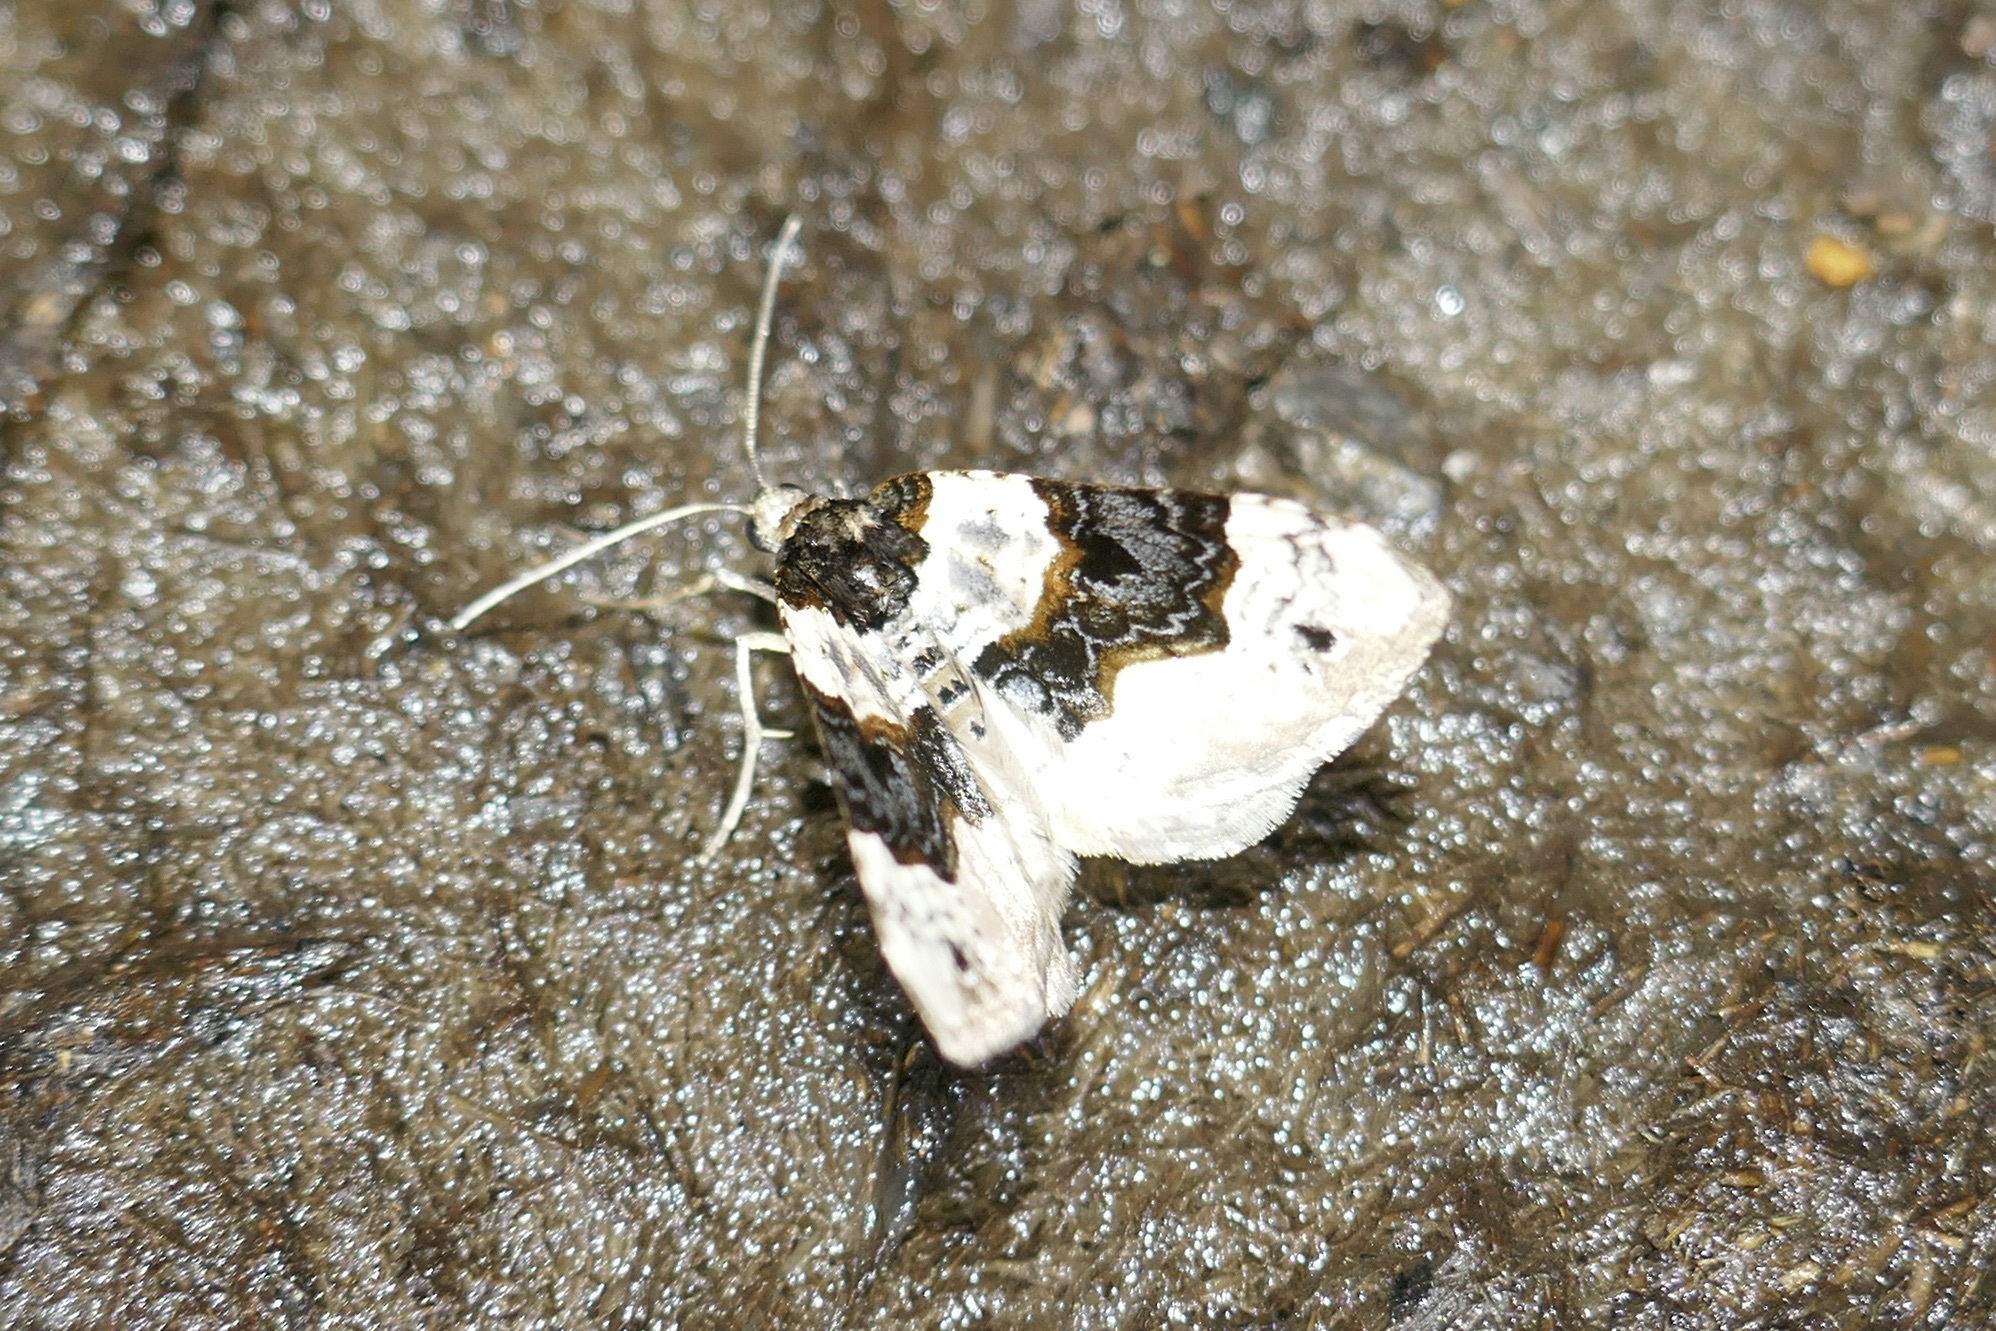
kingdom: Animalia
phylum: Arthropoda
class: Insecta
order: Lepidoptera
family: Geometridae
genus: Cosmorhoe
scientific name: Cosmorhoe ocellata
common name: Purple bar
